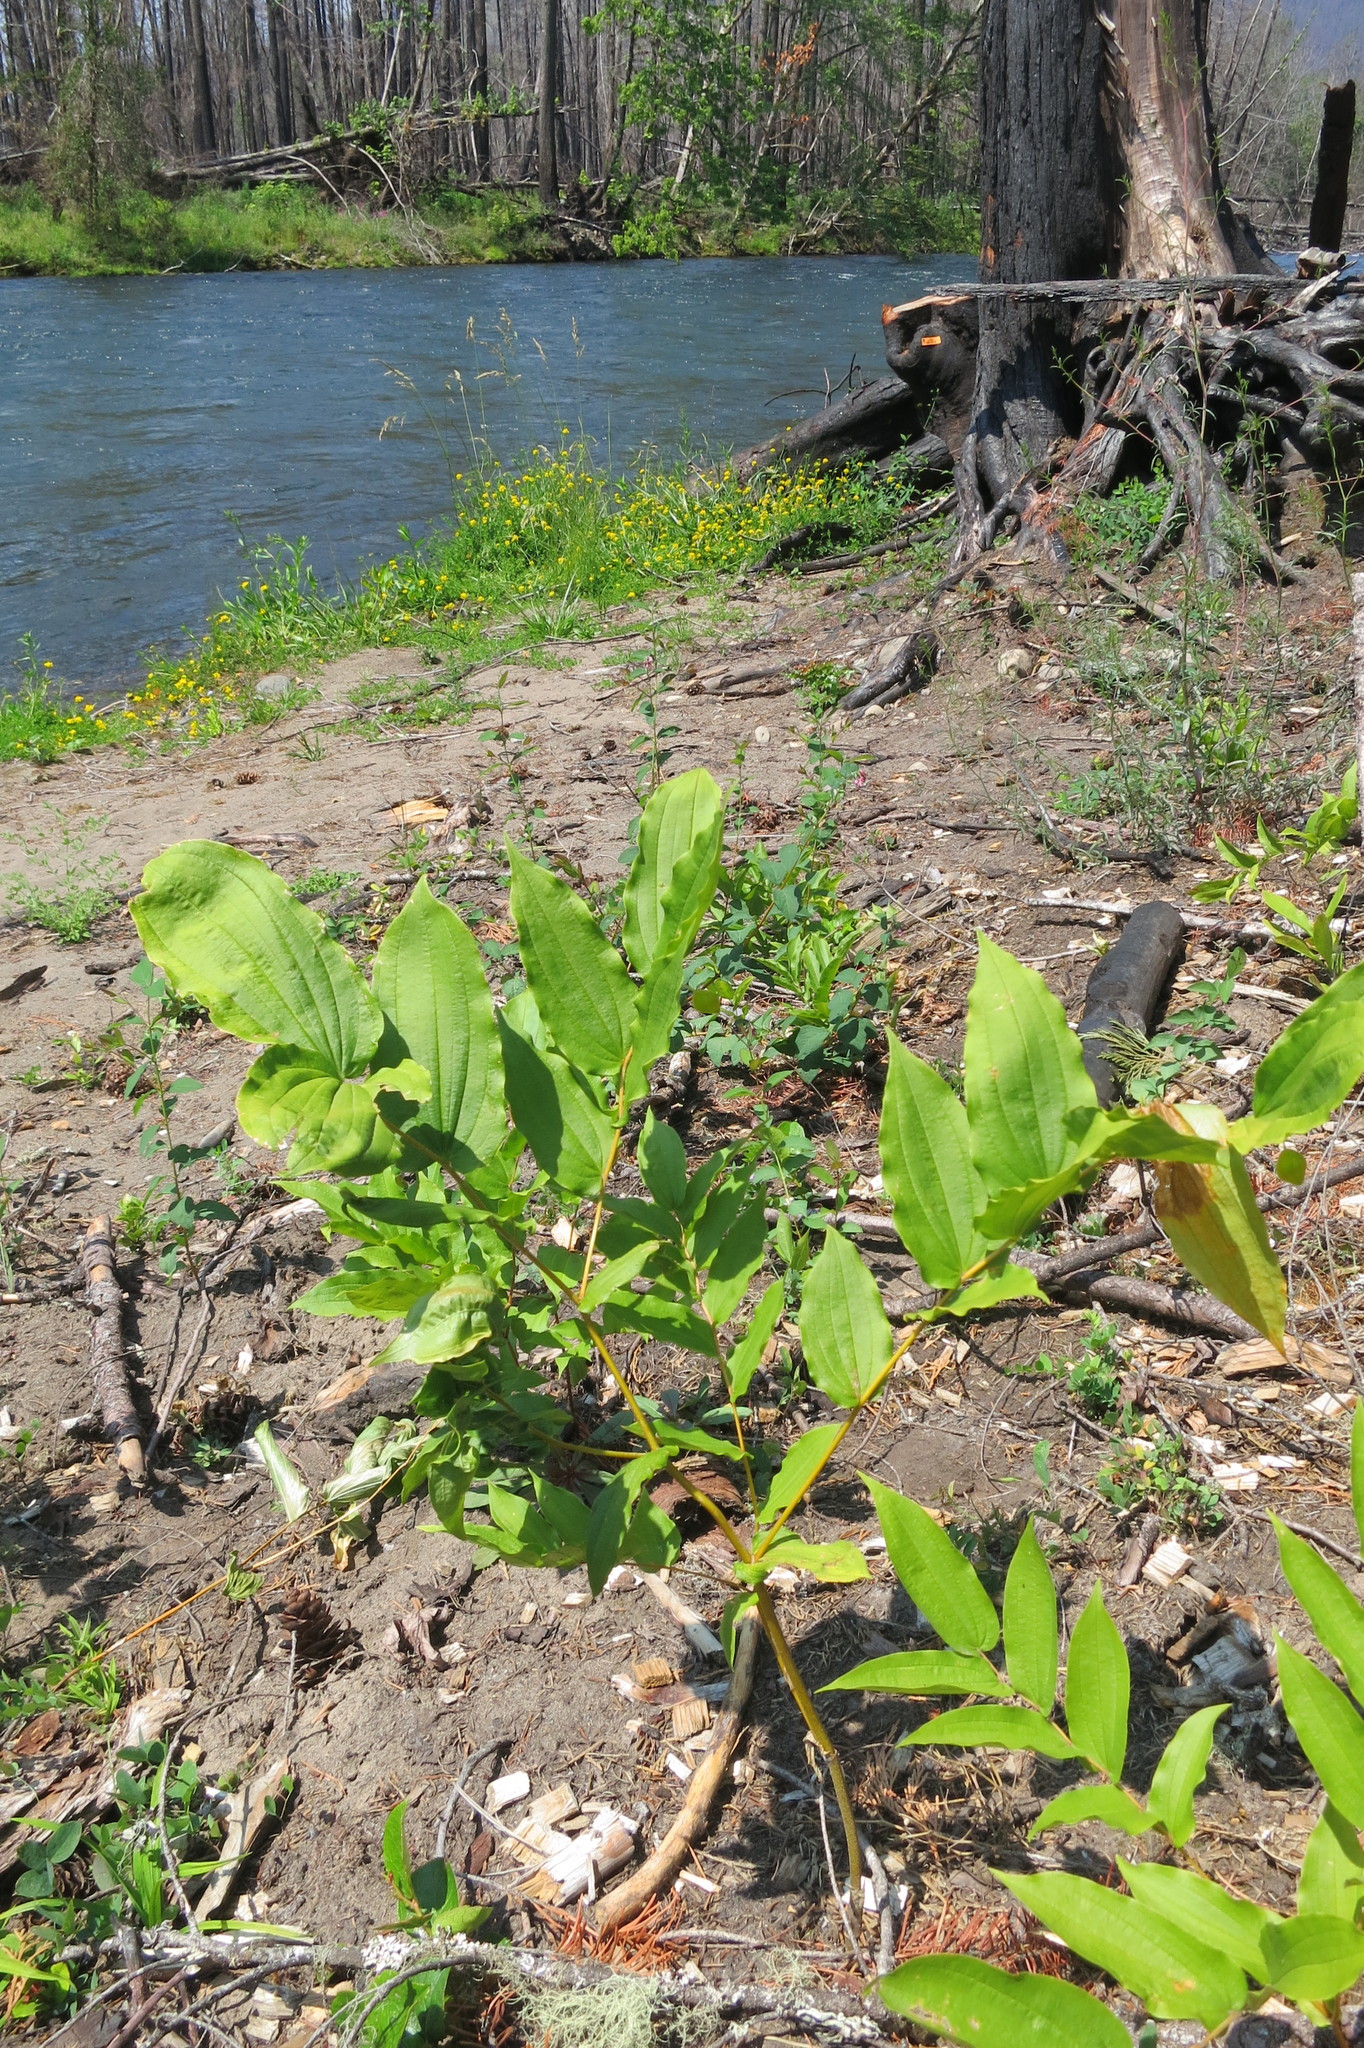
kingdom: Plantae
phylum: Tracheophyta
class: Liliopsida
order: Liliales
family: Liliaceae
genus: Prosartes
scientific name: Prosartes hookeri
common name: Fairy-bells
